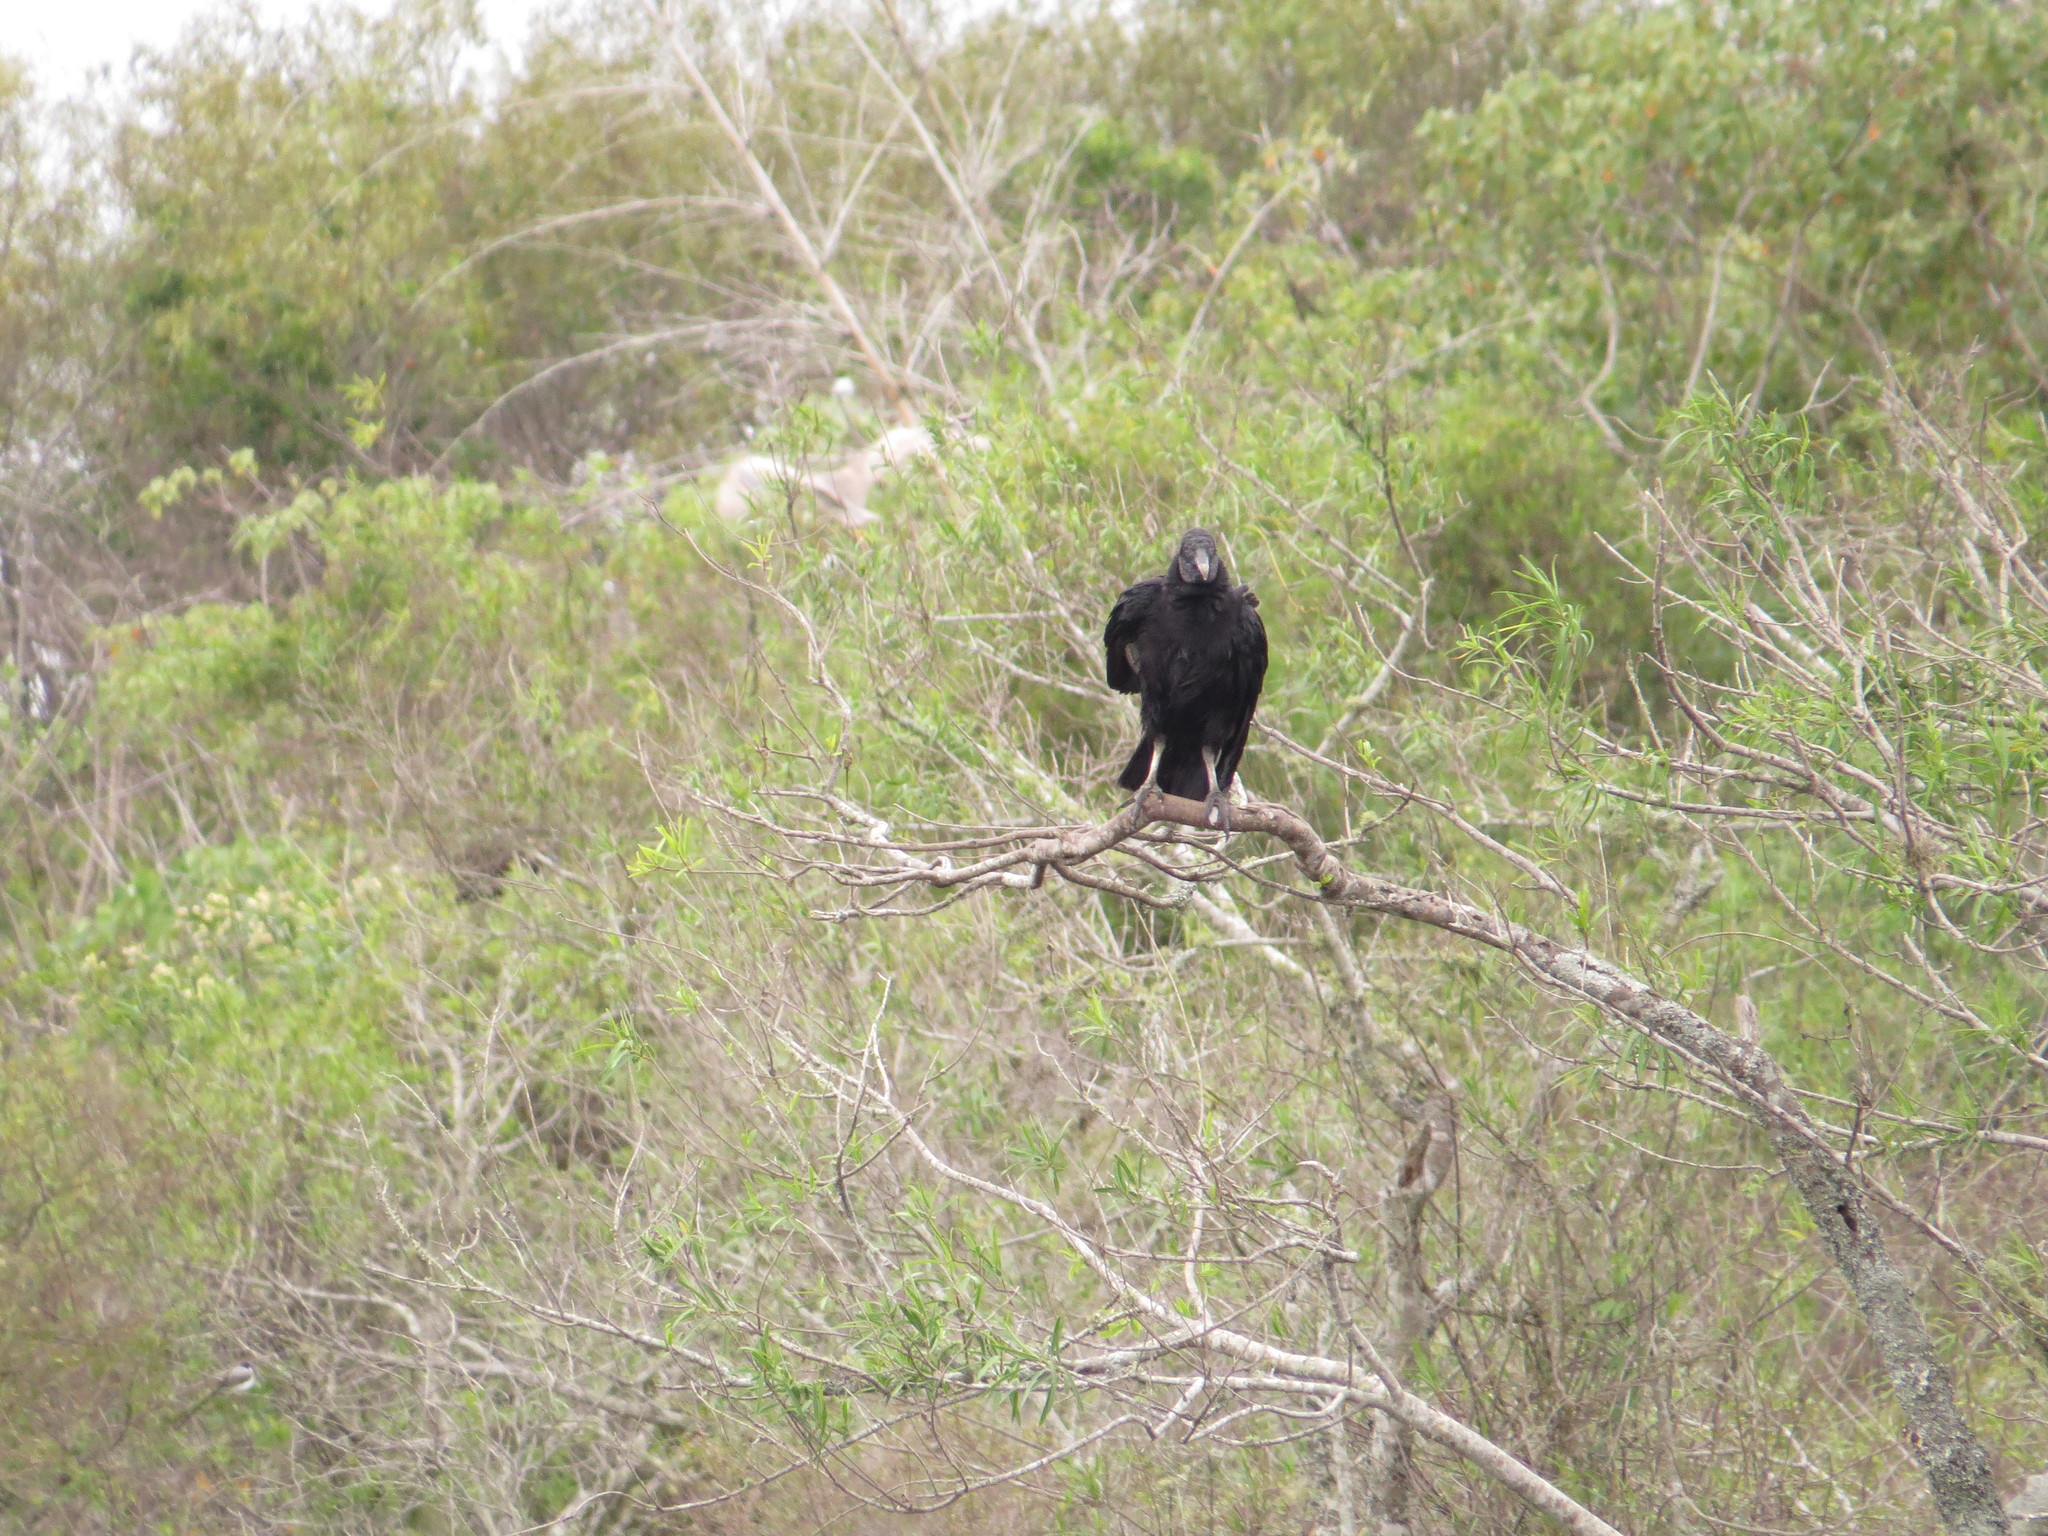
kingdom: Animalia
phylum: Chordata
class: Aves
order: Accipitriformes
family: Cathartidae
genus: Coragyps
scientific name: Coragyps atratus
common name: Black vulture
